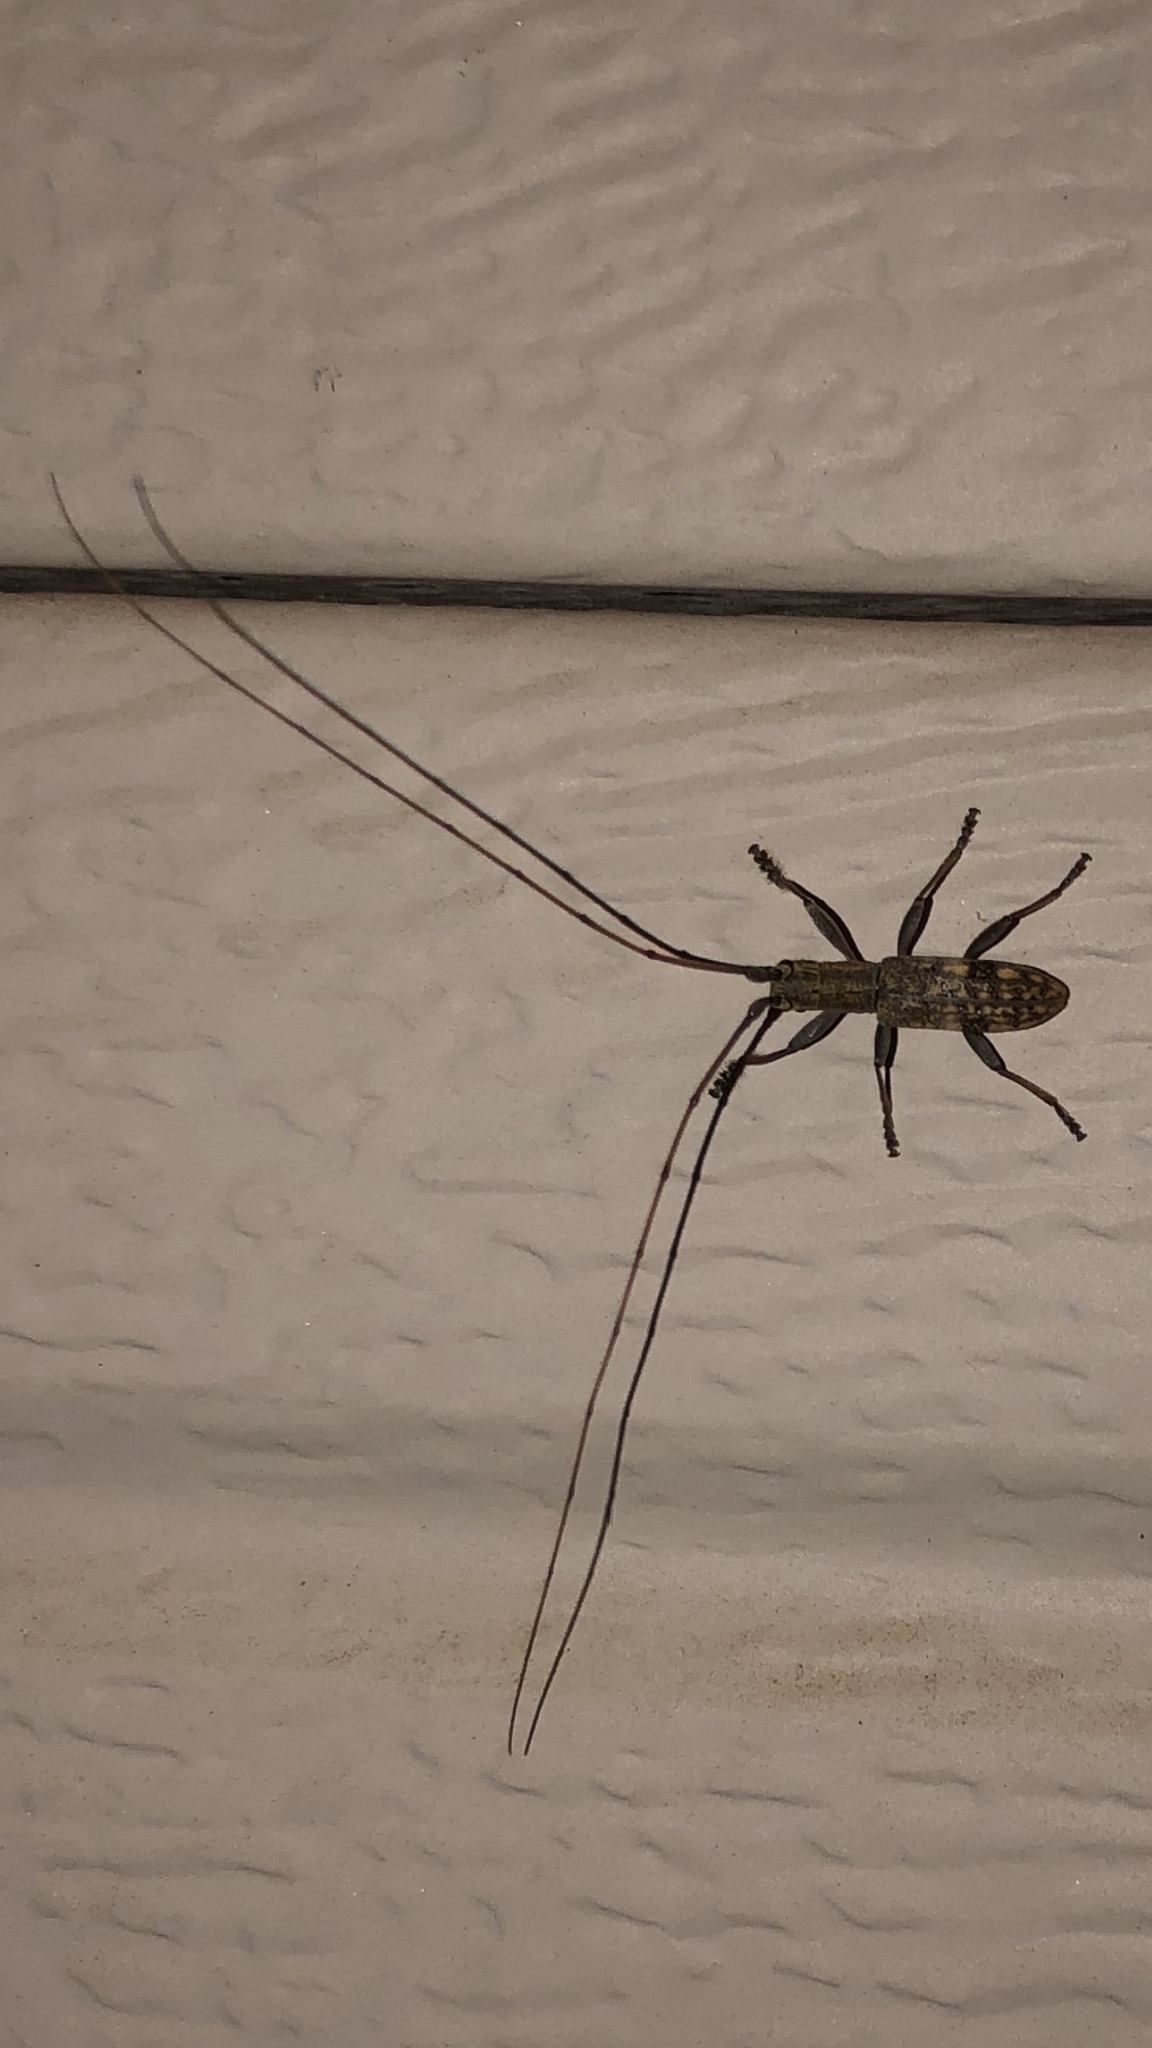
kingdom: Animalia
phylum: Arthropoda
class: Insecta
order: Coleoptera
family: Cerambycidae
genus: Dorcaschema
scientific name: Dorcaschema alternatum
